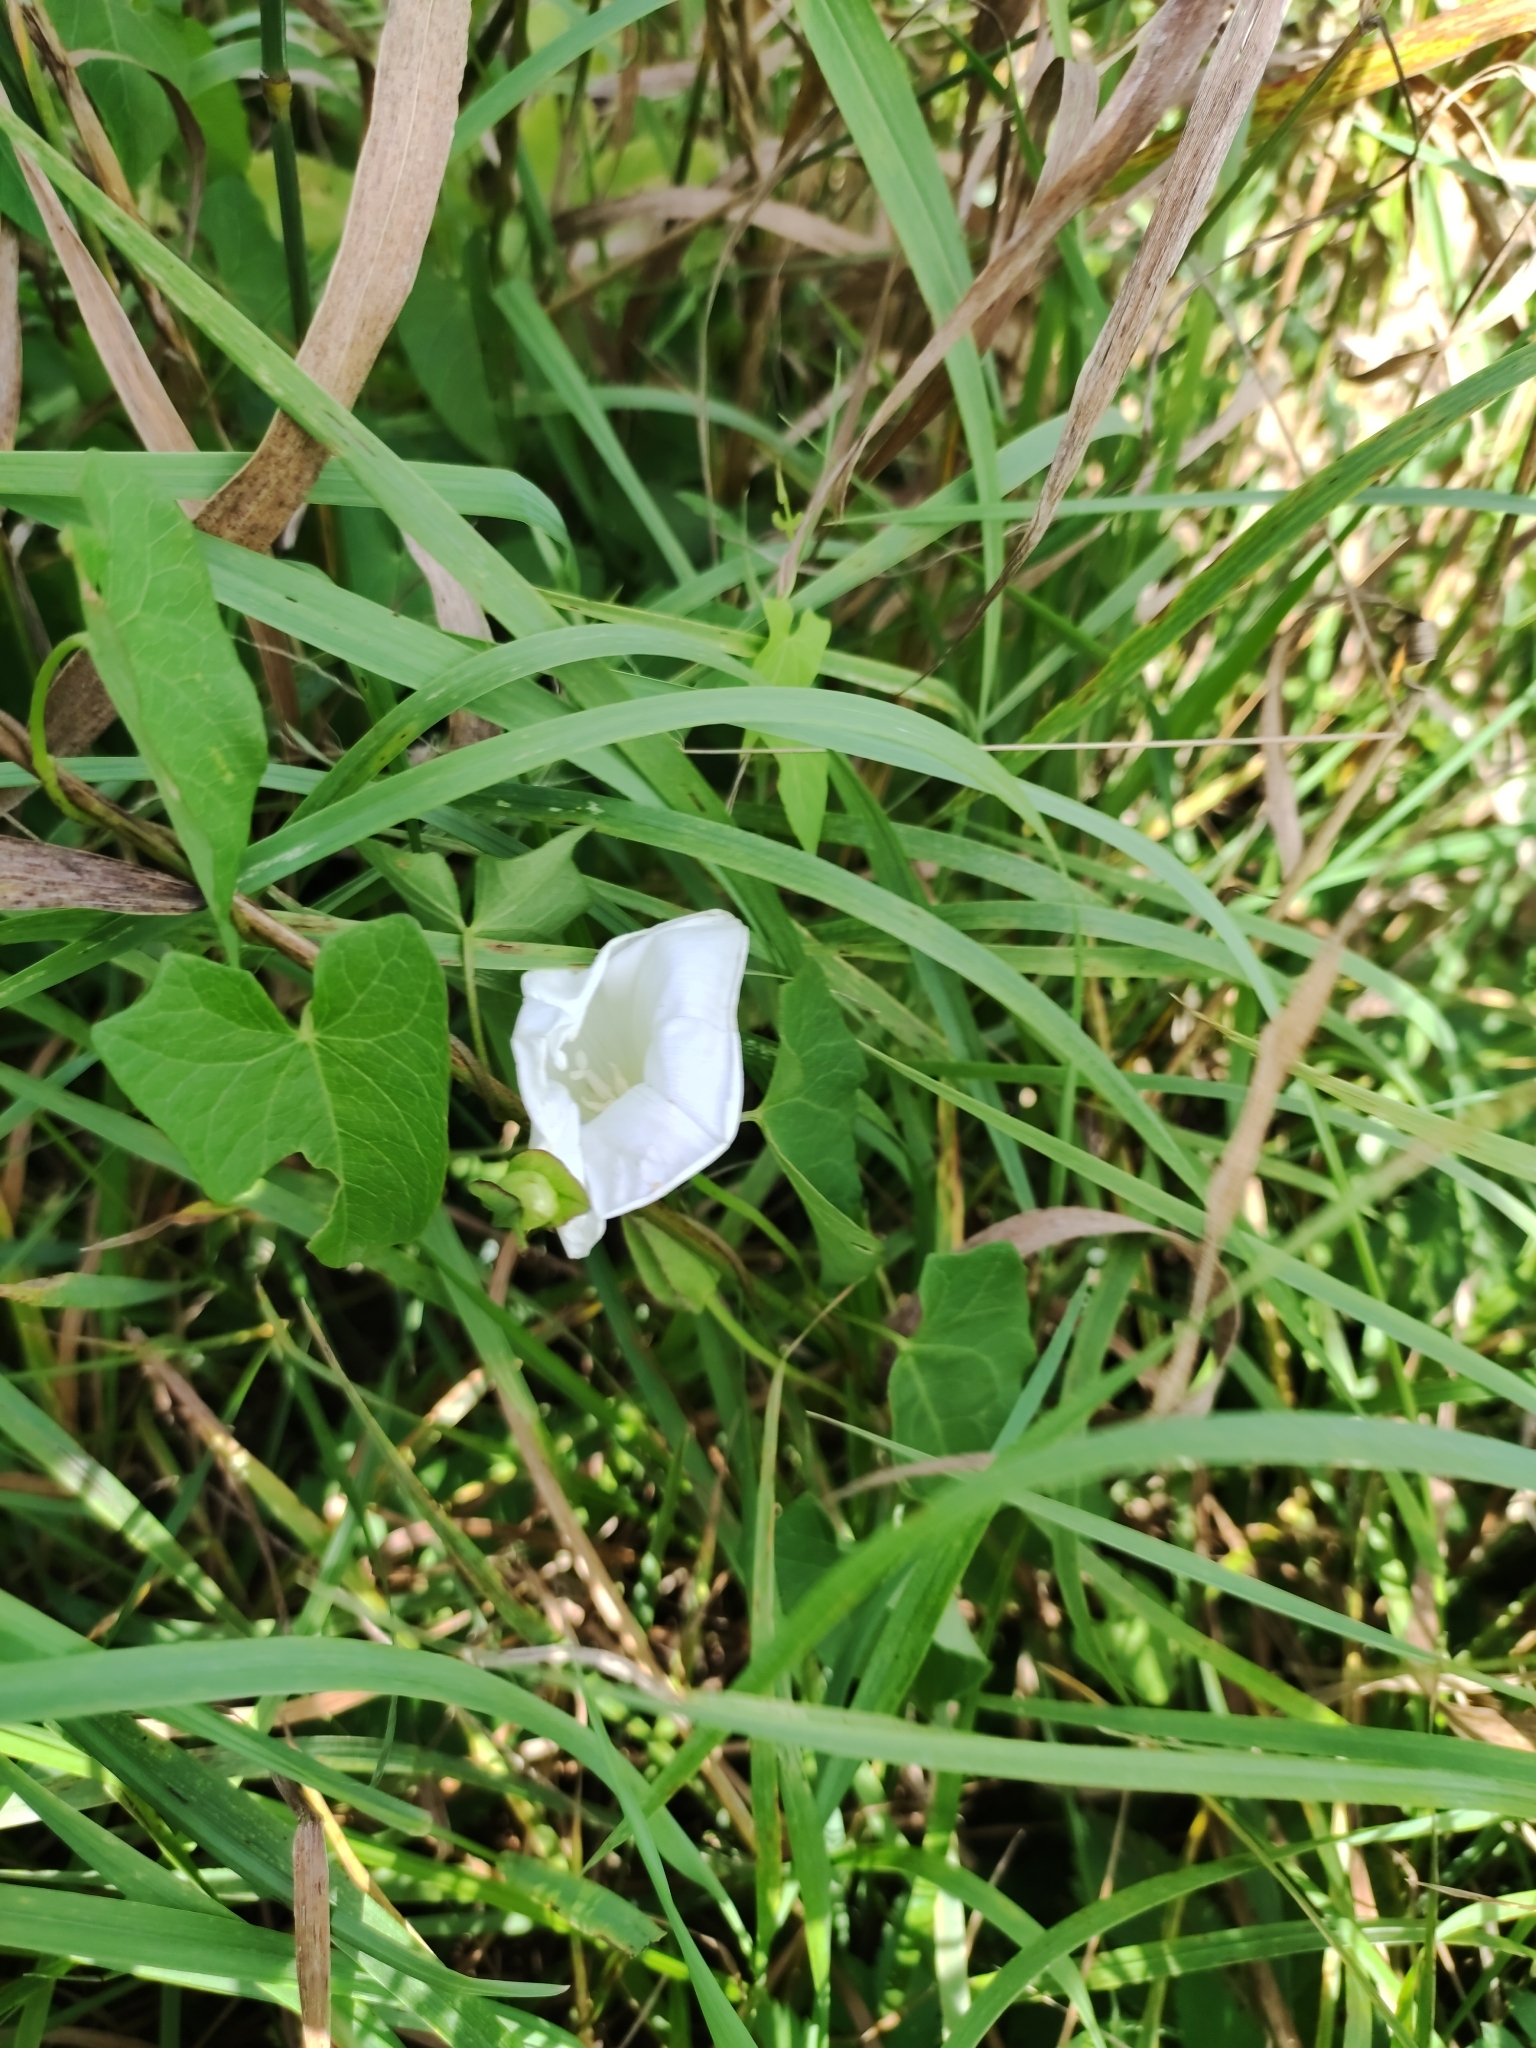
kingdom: Plantae
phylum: Tracheophyta
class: Magnoliopsida
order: Solanales
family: Convolvulaceae
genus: Calystegia
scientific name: Calystegia sepium
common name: Hedge bindweed
